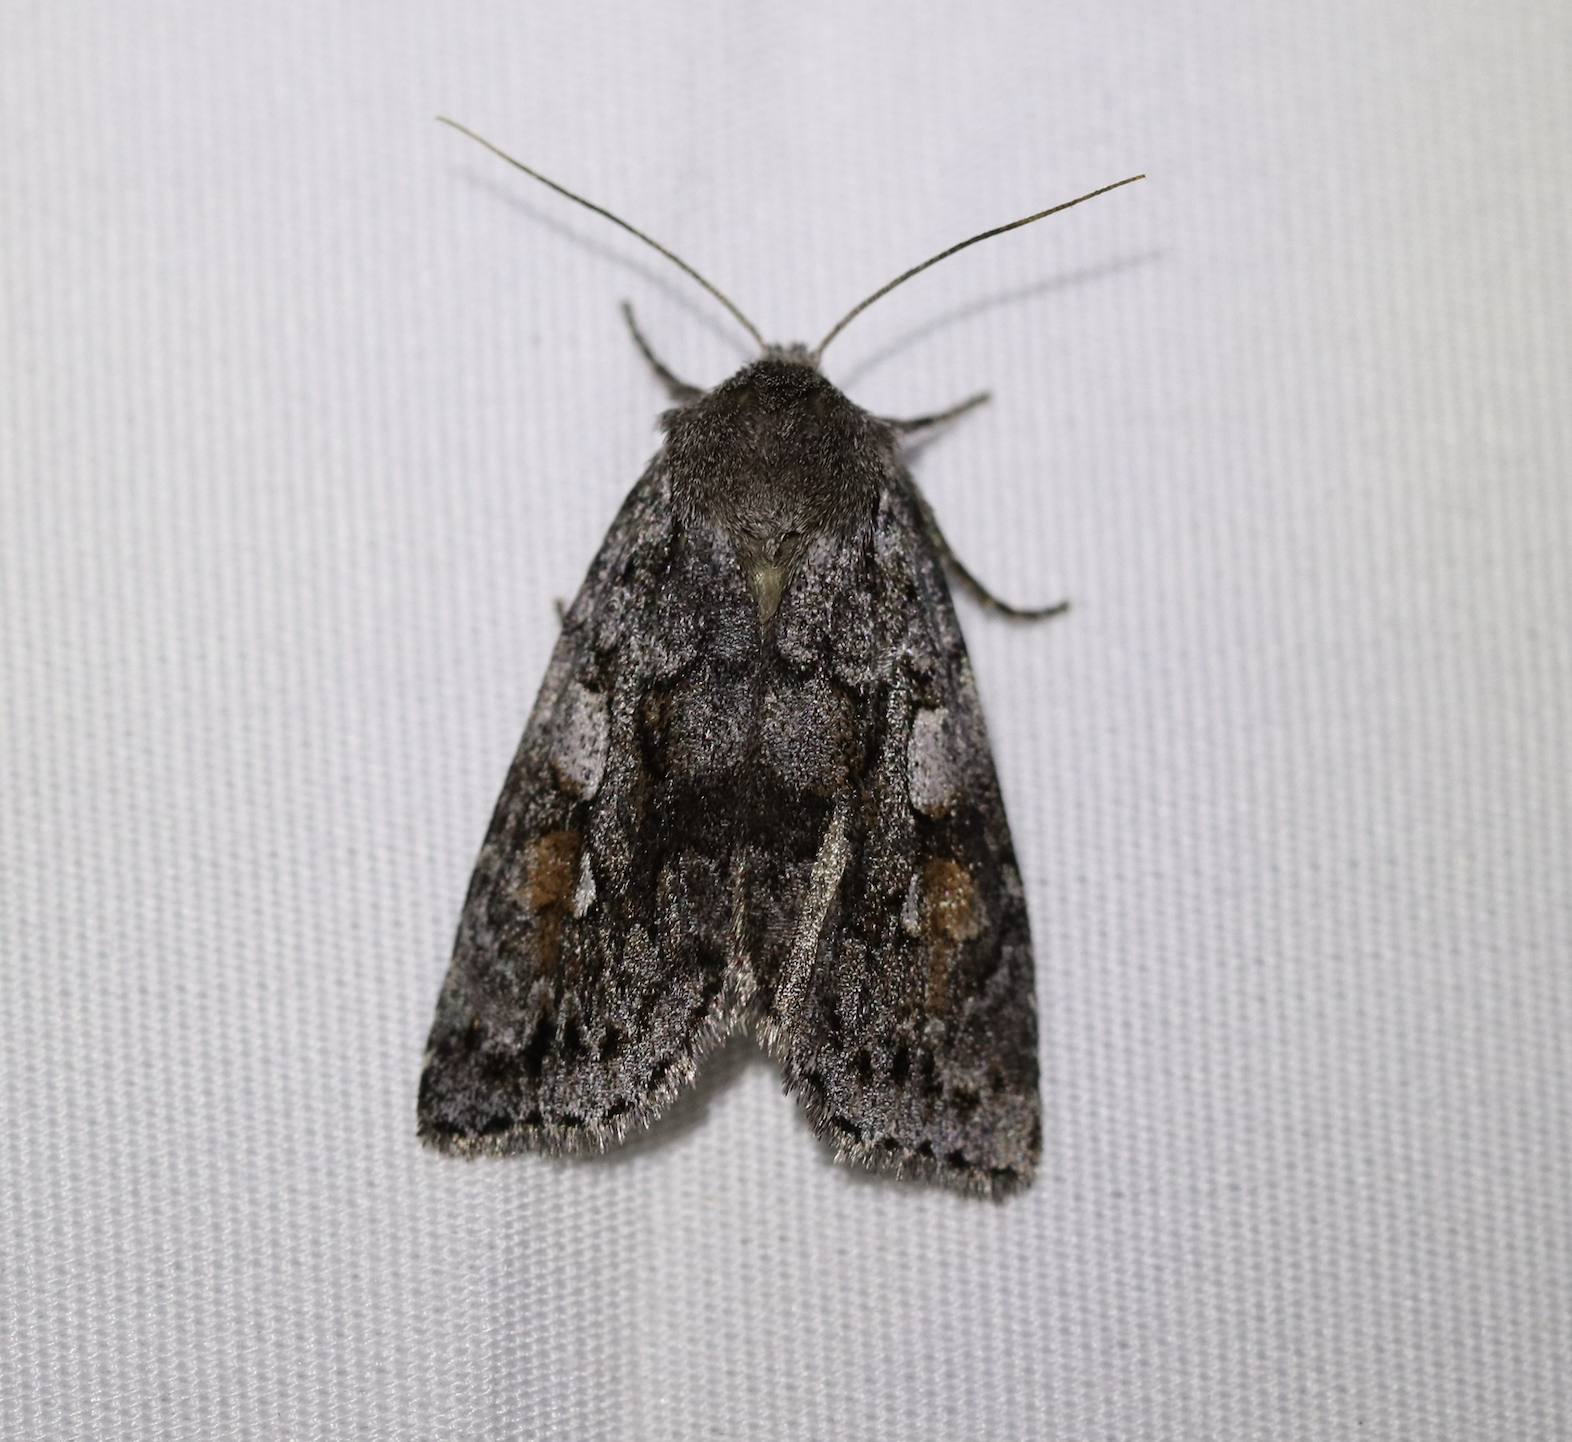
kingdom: Animalia
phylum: Arthropoda
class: Insecta
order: Lepidoptera
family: Noctuidae
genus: Xestia
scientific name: Xestia imperita
